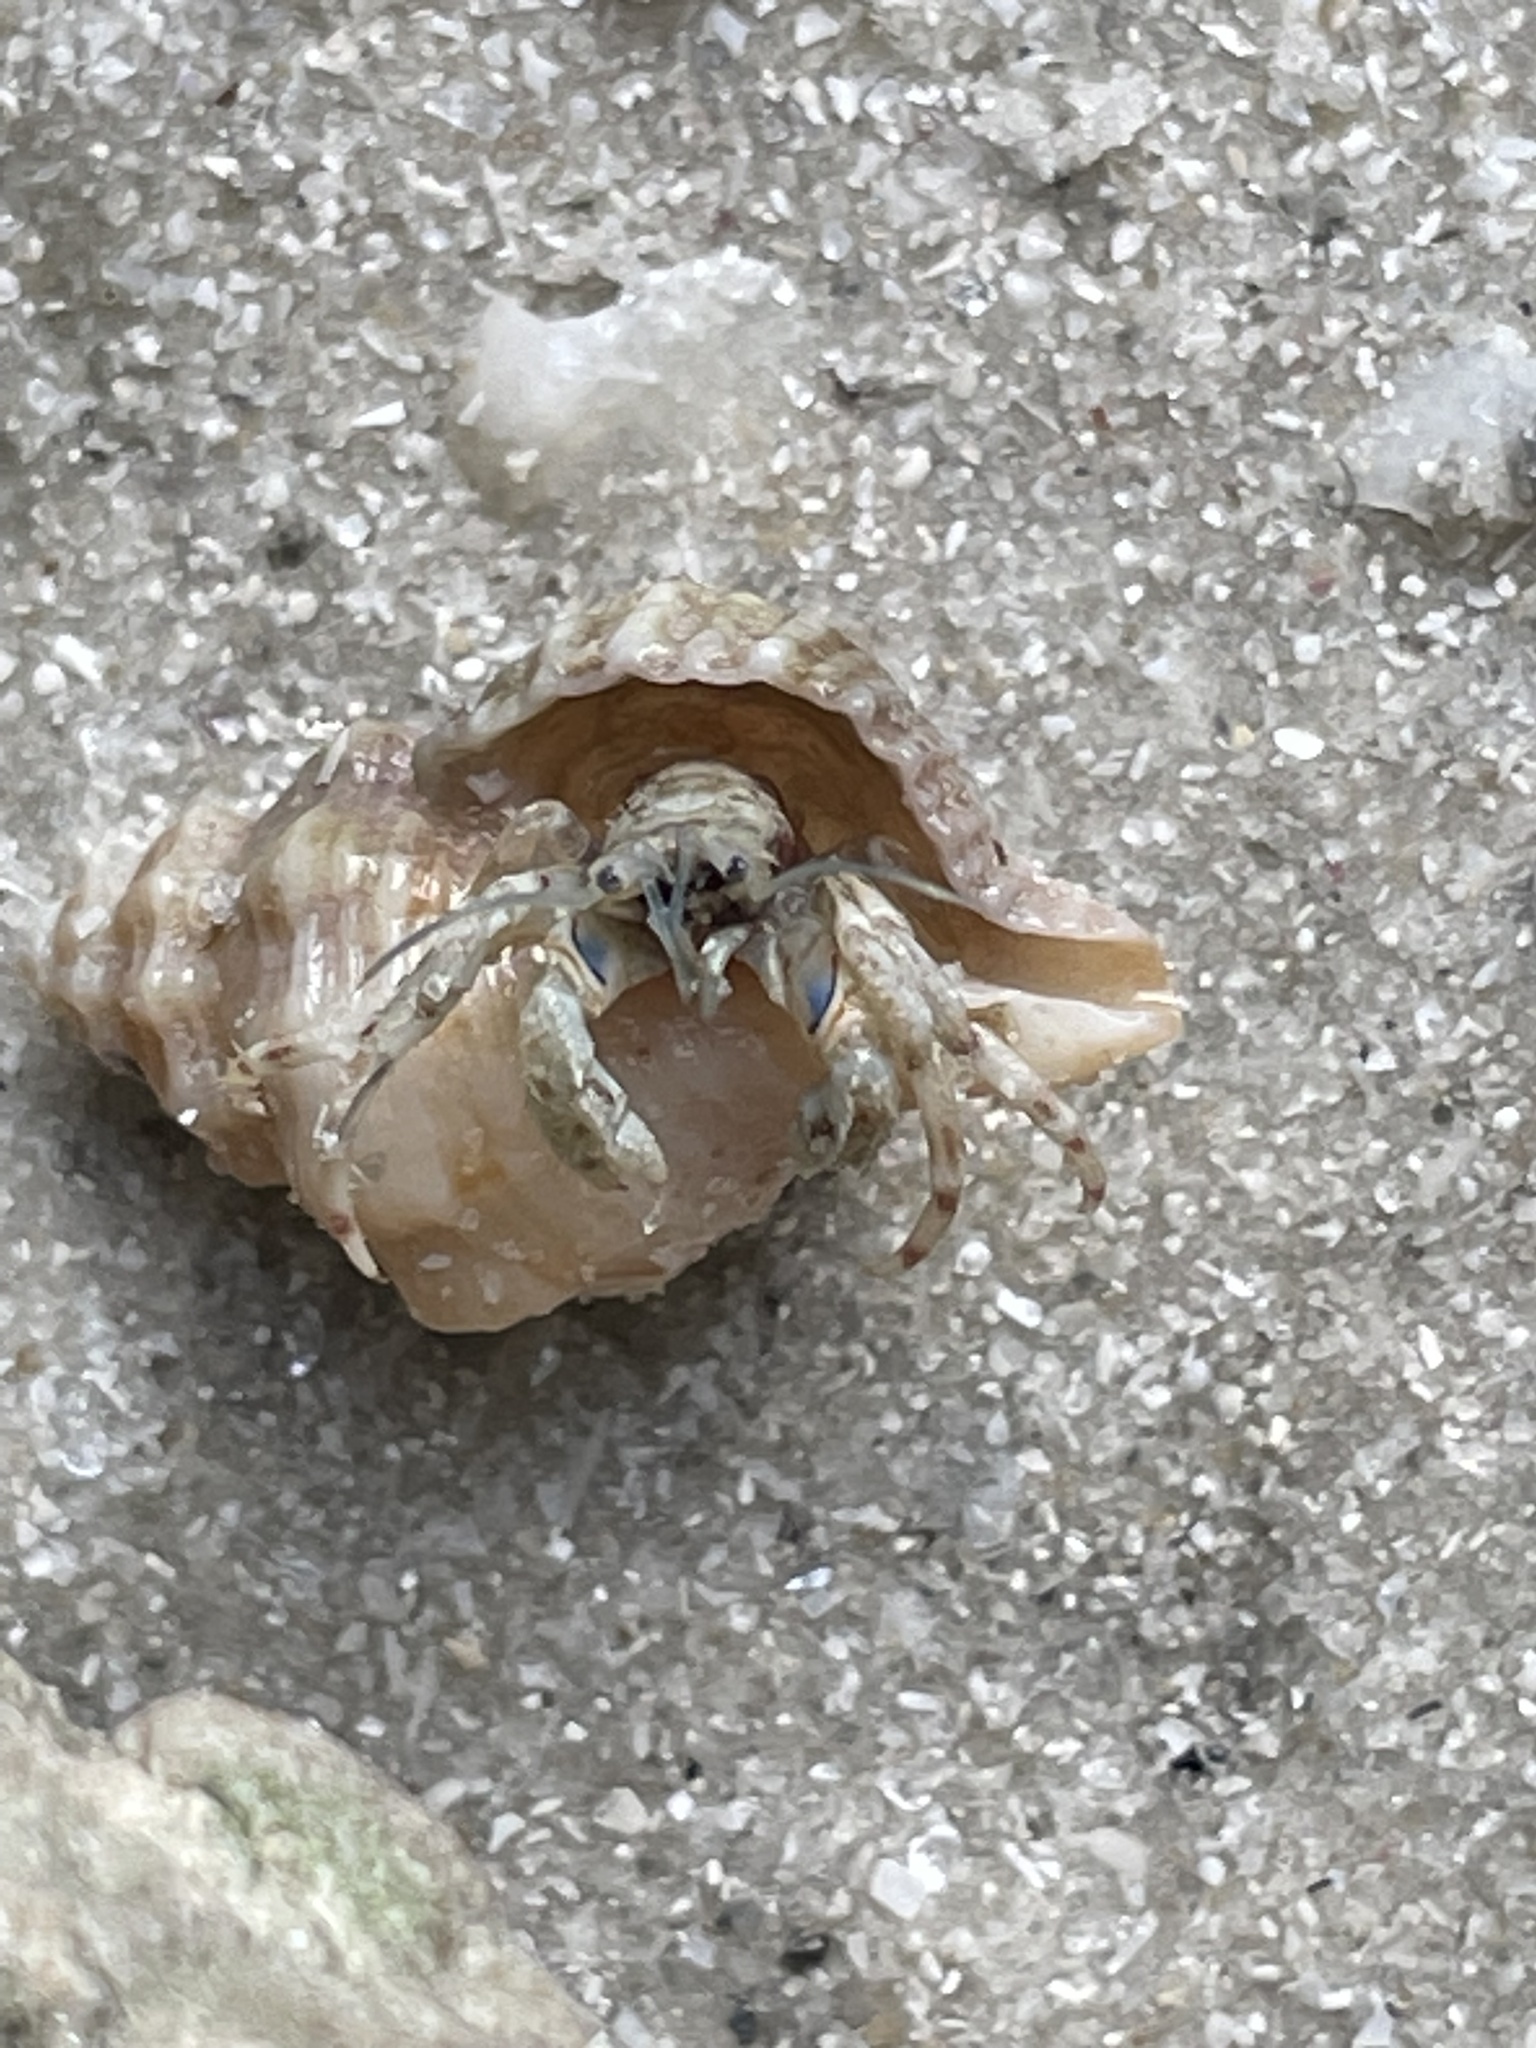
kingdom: Animalia
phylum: Arthropoda
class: Malacostraca
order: Decapoda
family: Diogenidae
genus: Areopaguristes
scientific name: Areopaguristes hummi
